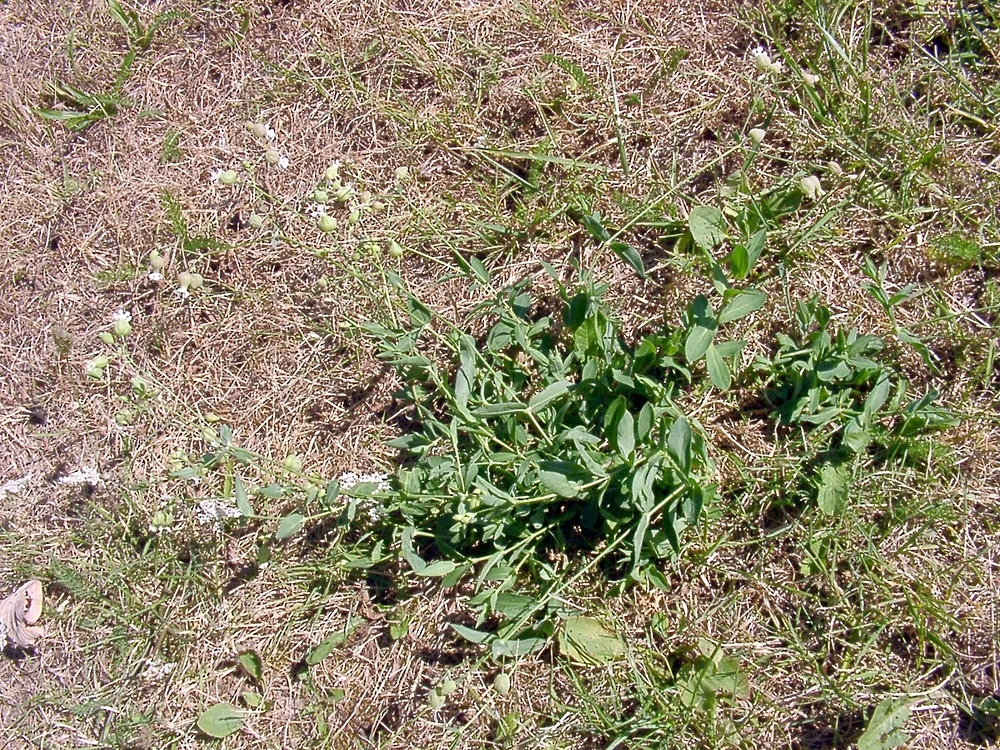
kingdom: Plantae
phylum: Tracheophyta
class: Magnoliopsida
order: Caryophyllales
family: Caryophyllaceae
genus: Silene
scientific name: Silene vulgaris
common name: Bladder campion
